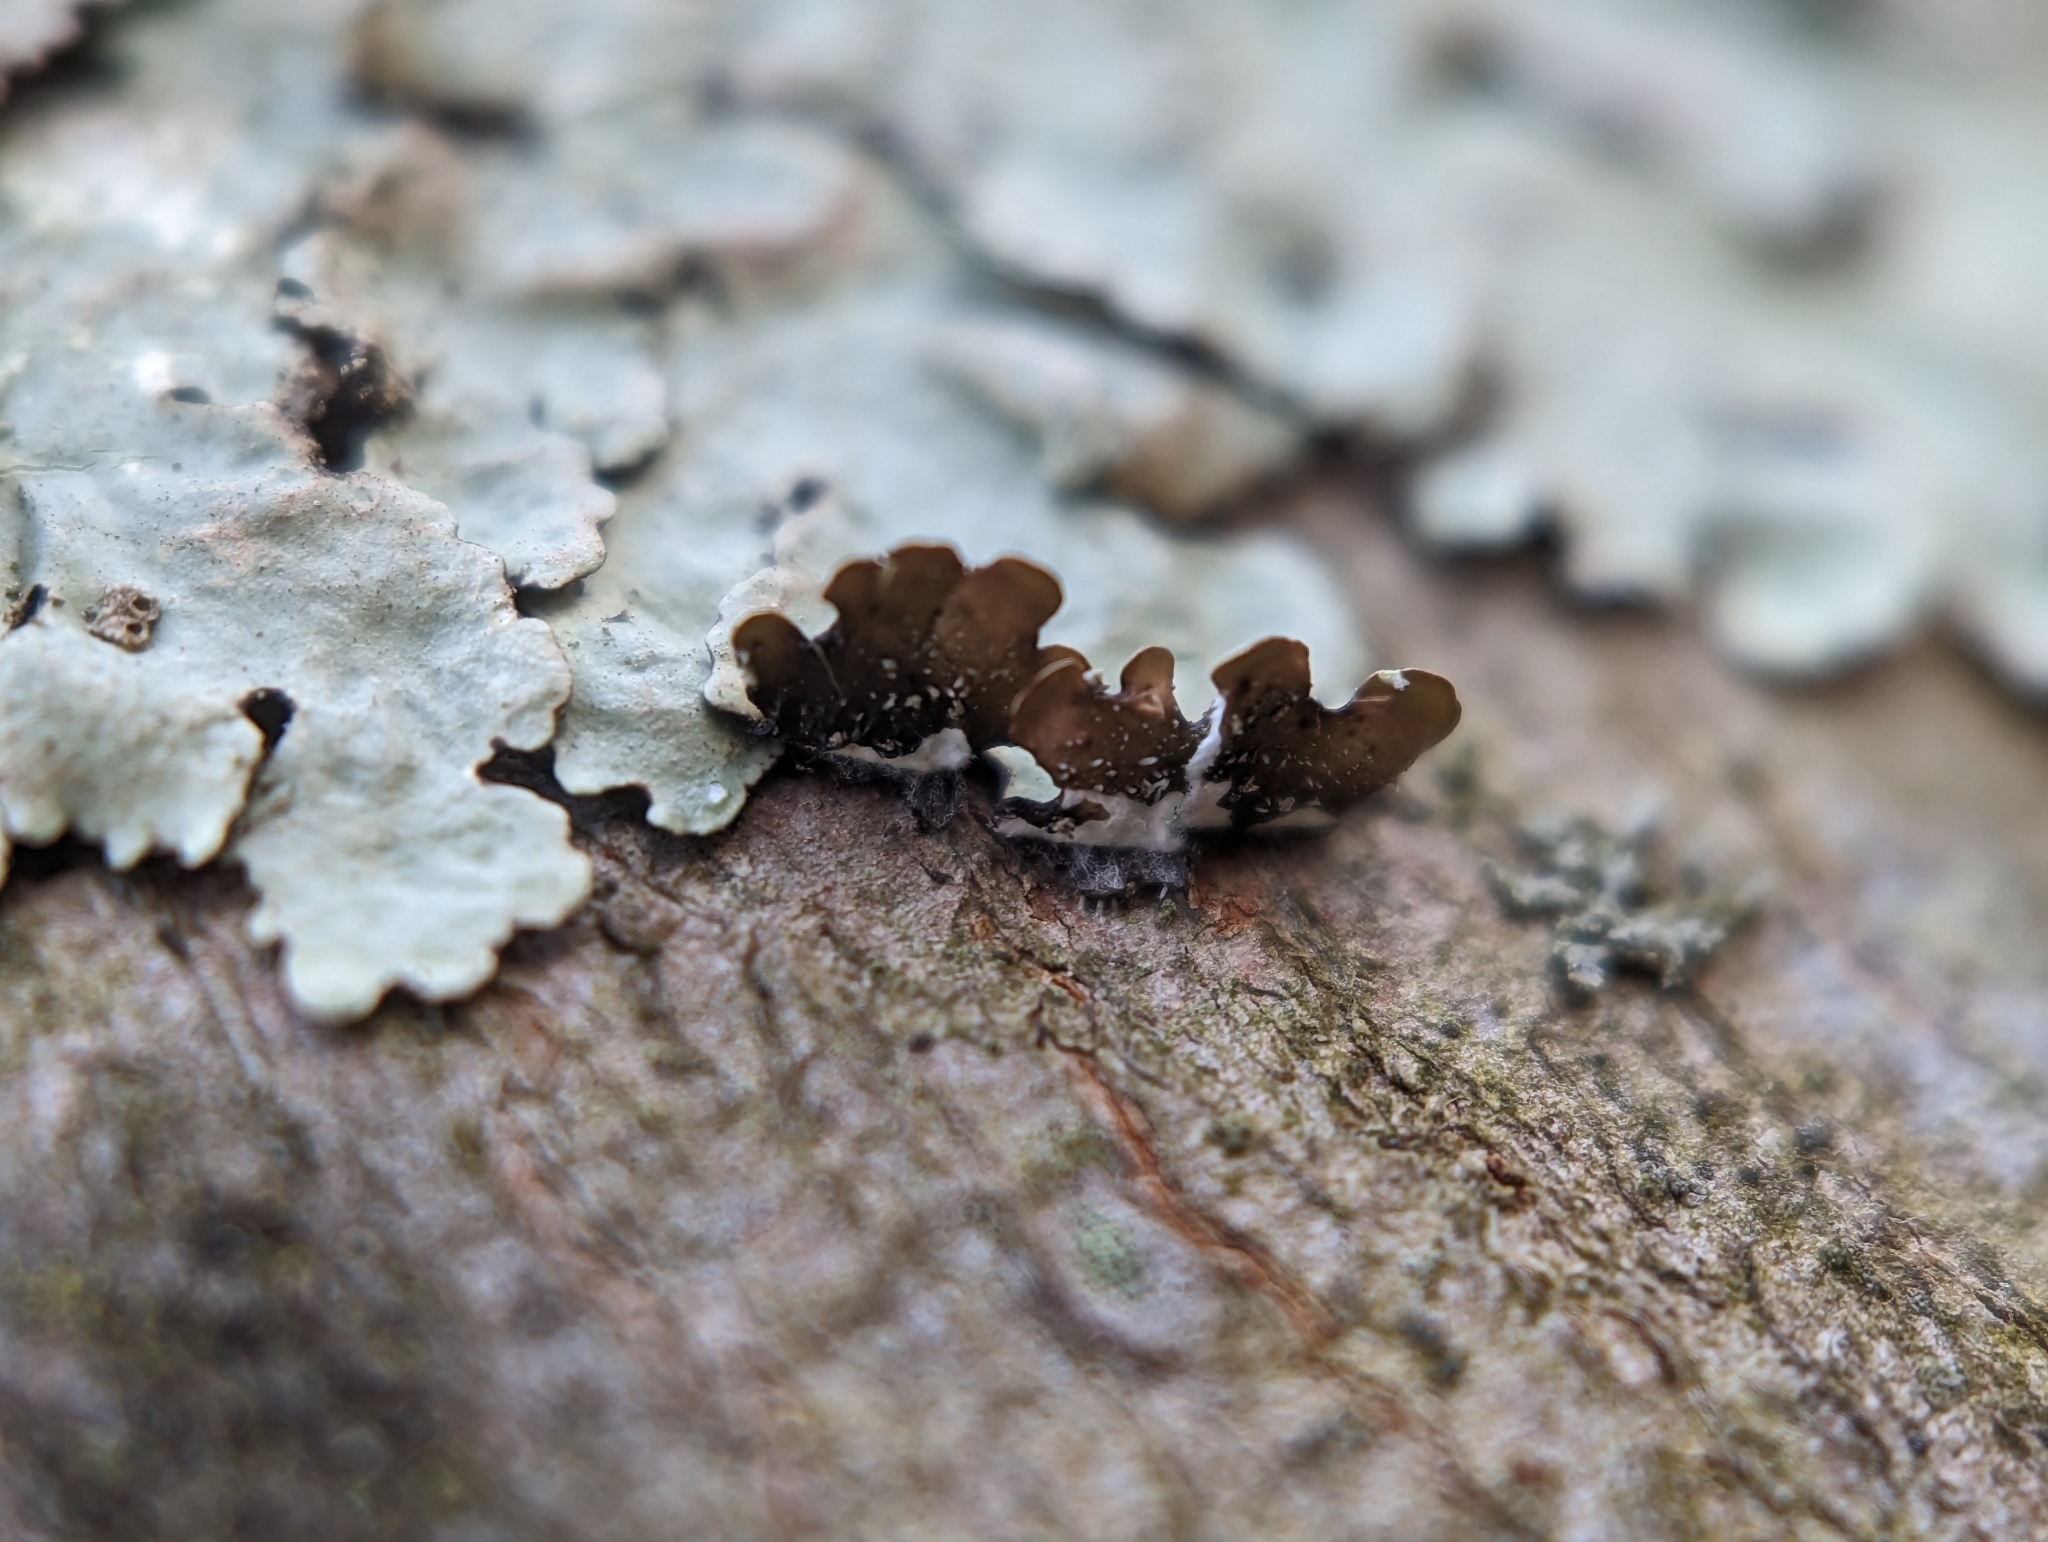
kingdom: Fungi
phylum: Ascomycota
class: Lecanoromycetes
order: Lecanorales
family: Parmeliaceae
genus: Flavoparmelia
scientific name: Flavoparmelia caperata
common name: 40-mile per hour lichen
